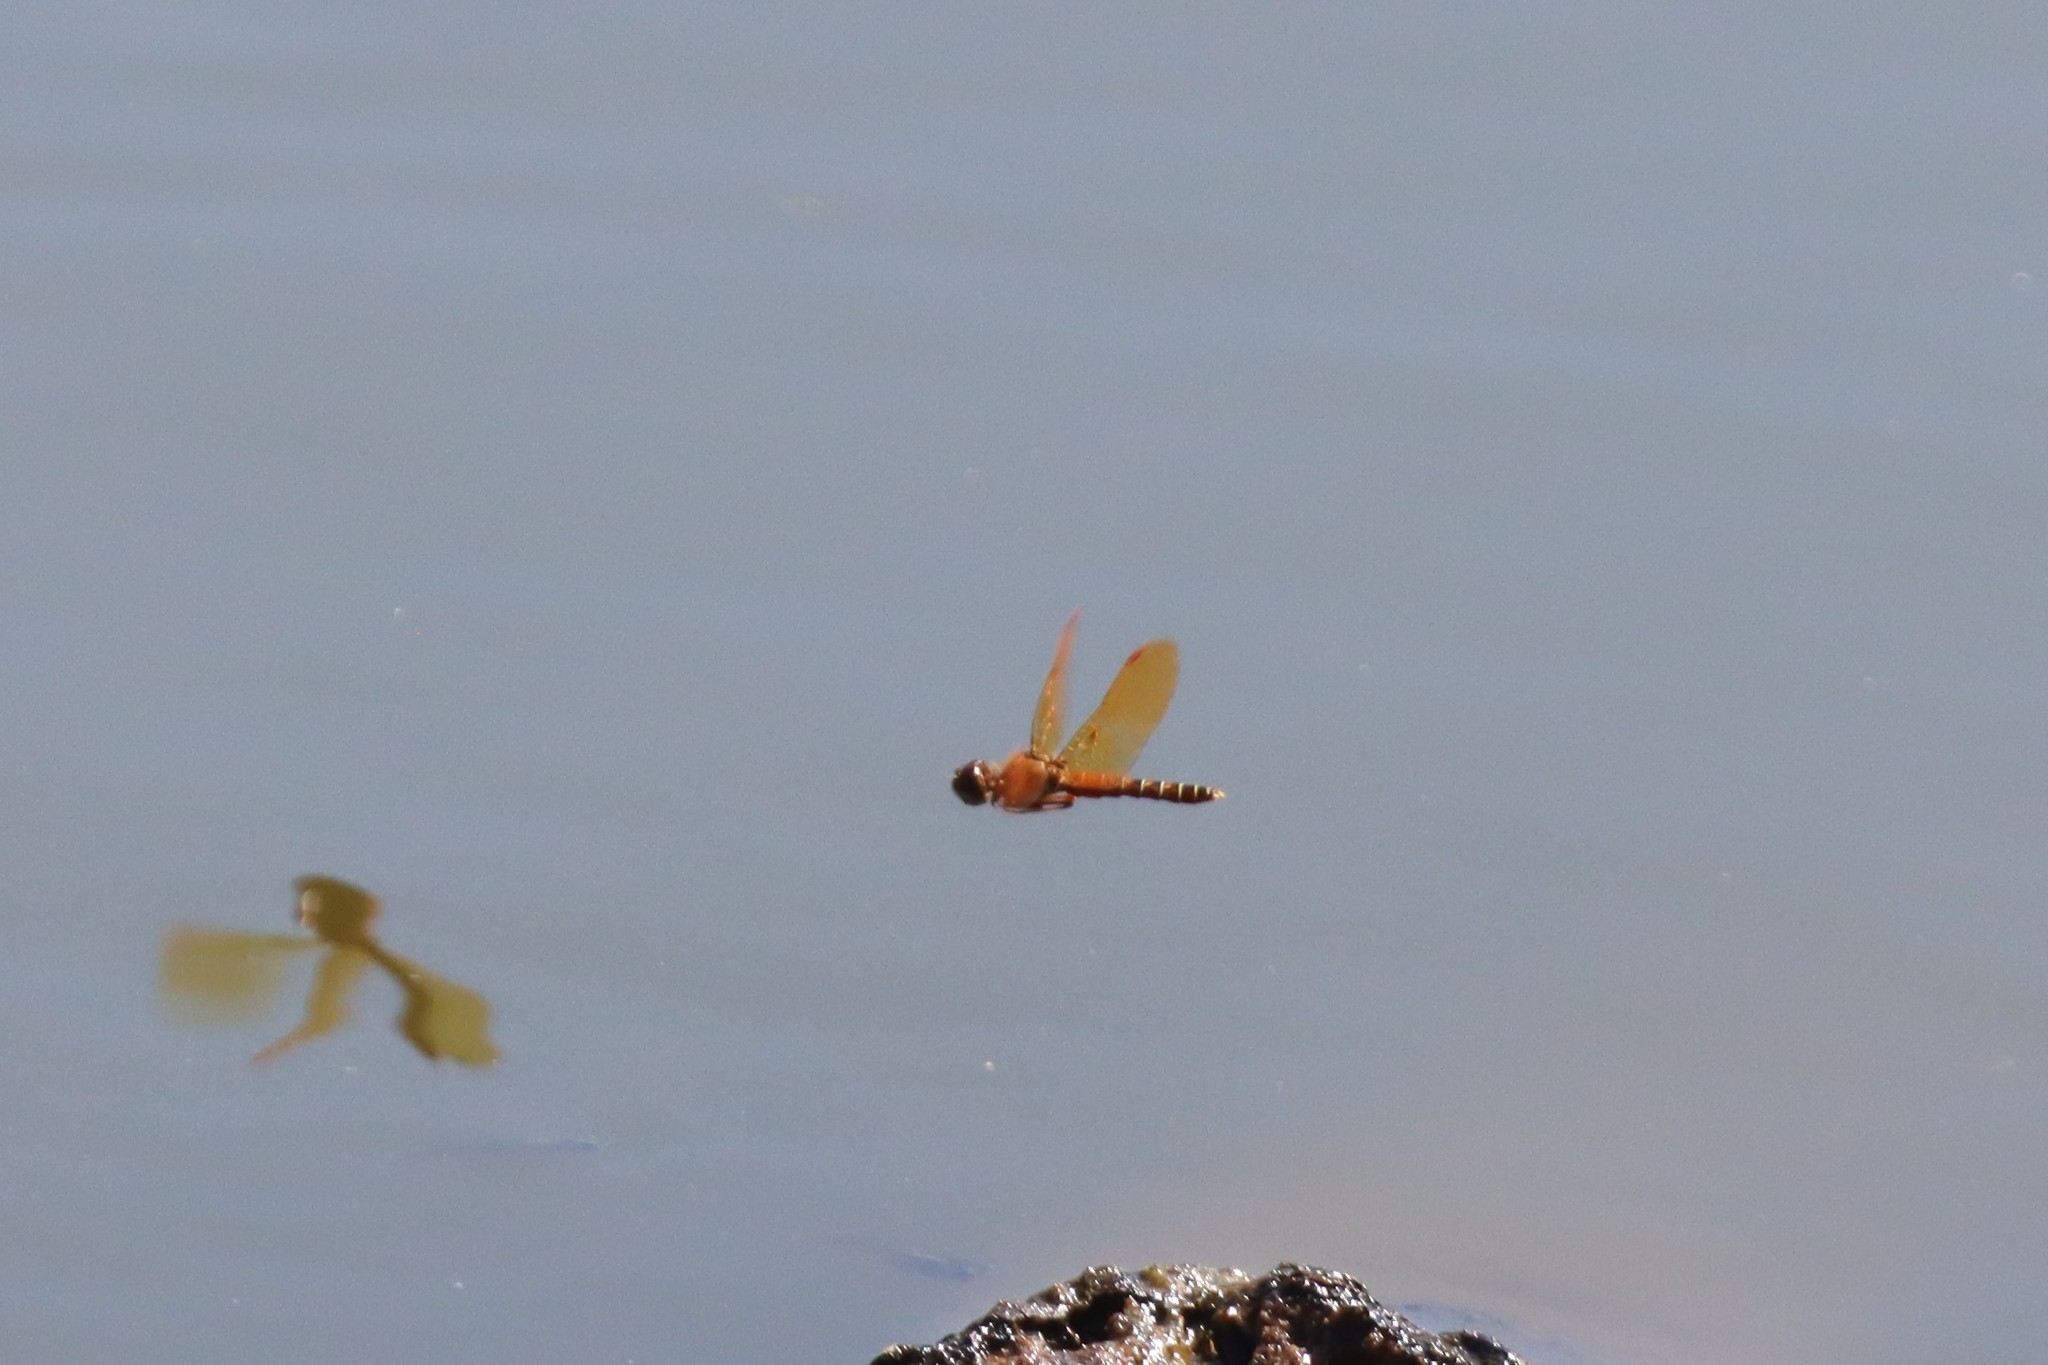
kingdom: Animalia
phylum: Arthropoda
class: Insecta
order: Odonata
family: Libellulidae
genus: Perithemis
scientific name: Perithemis tenera
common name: Eastern amberwing
